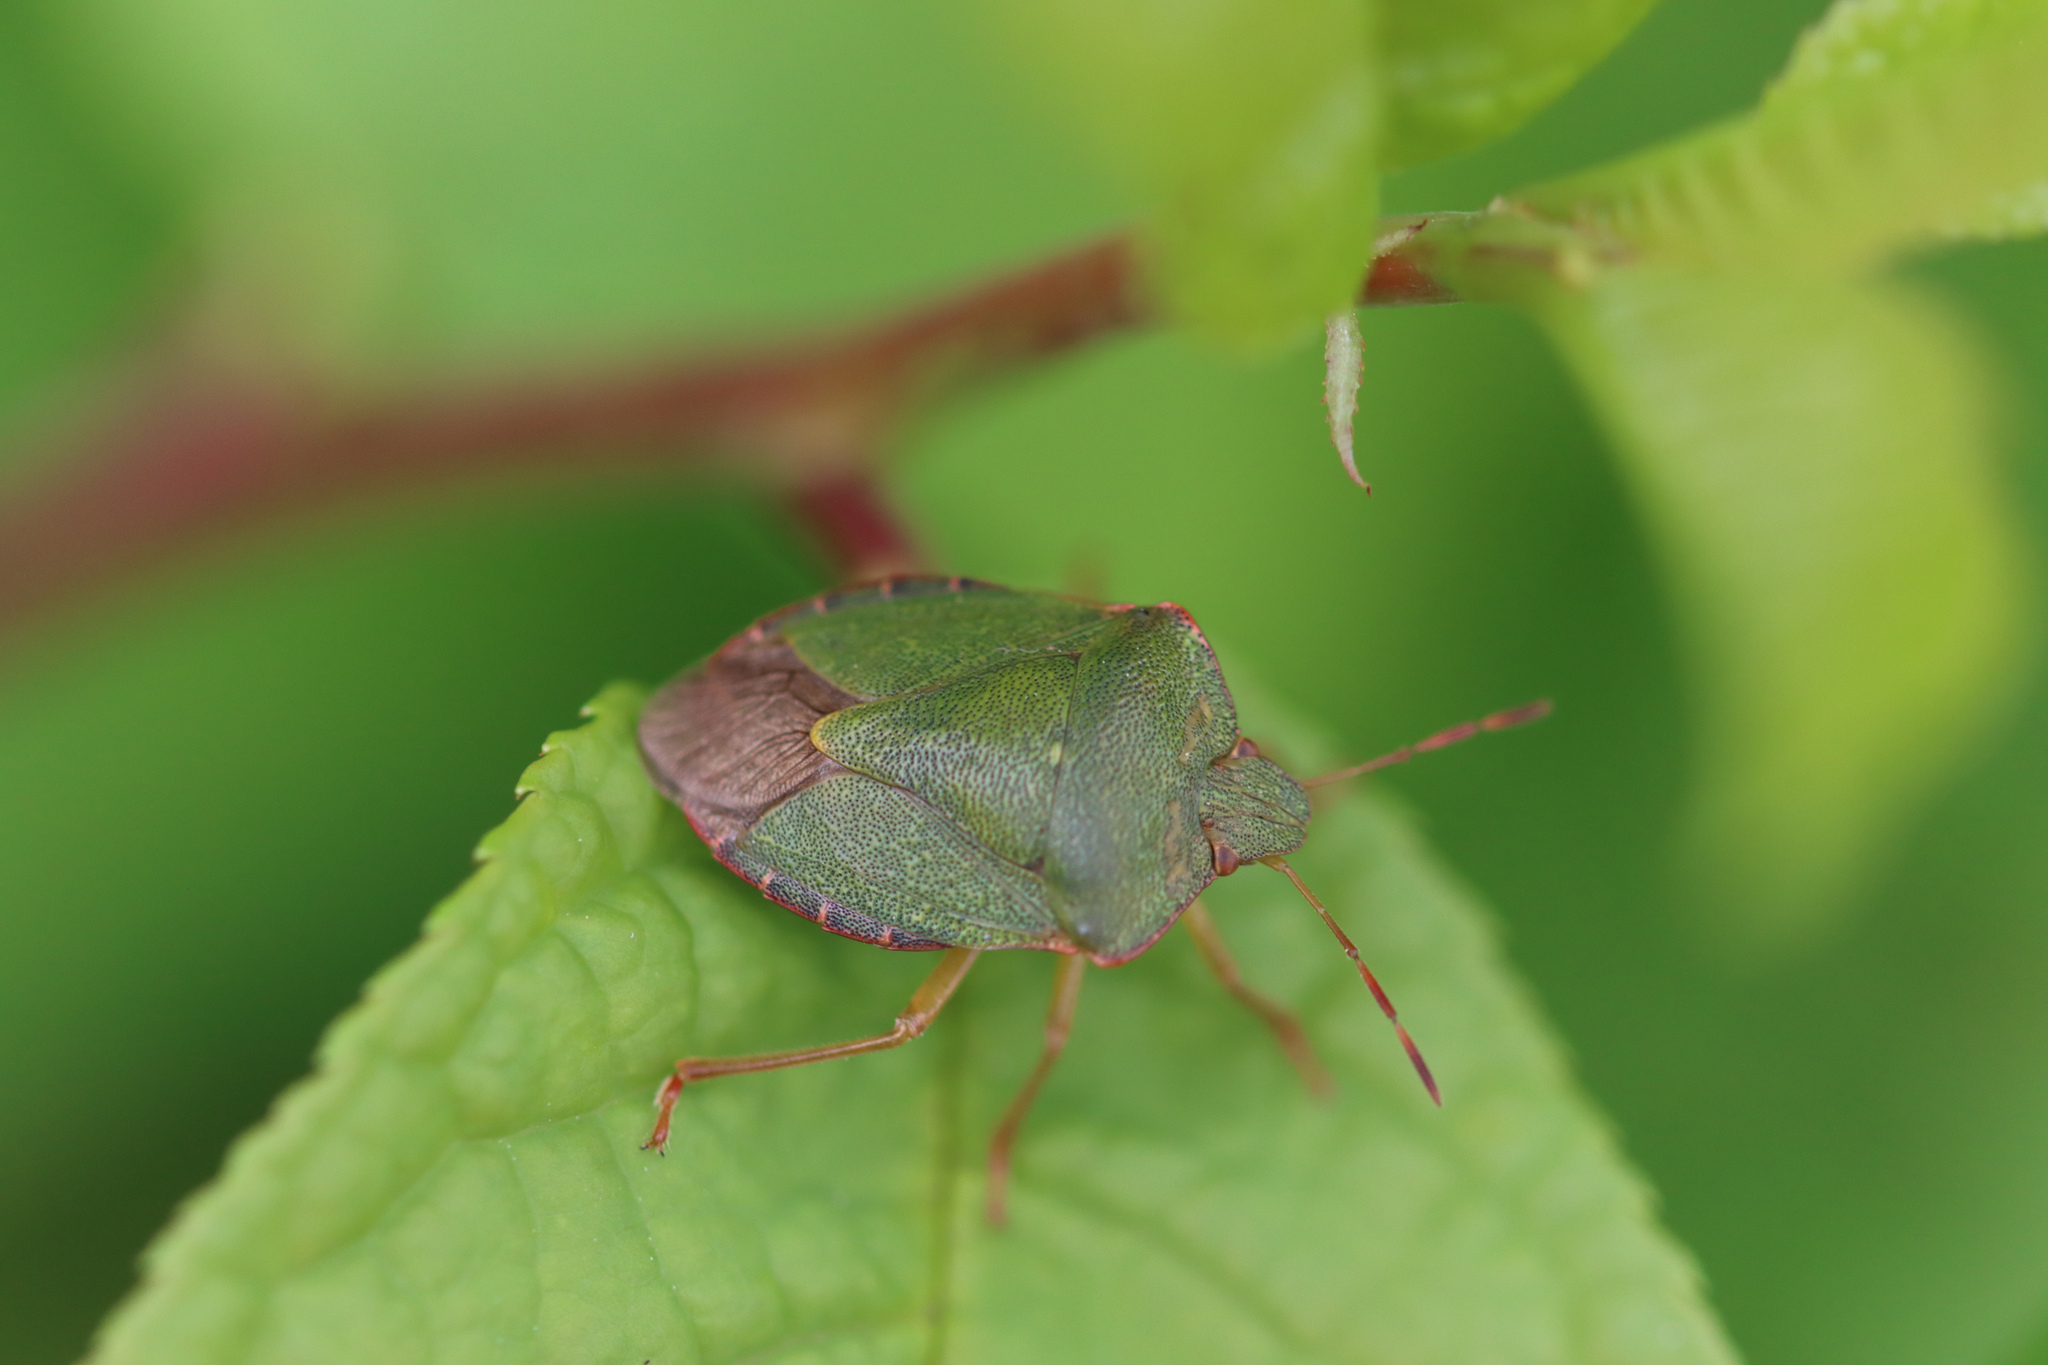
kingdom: Animalia
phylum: Arthropoda
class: Insecta
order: Hemiptera
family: Pentatomidae
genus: Palomena
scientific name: Palomena prasina
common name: Green shieldbug
